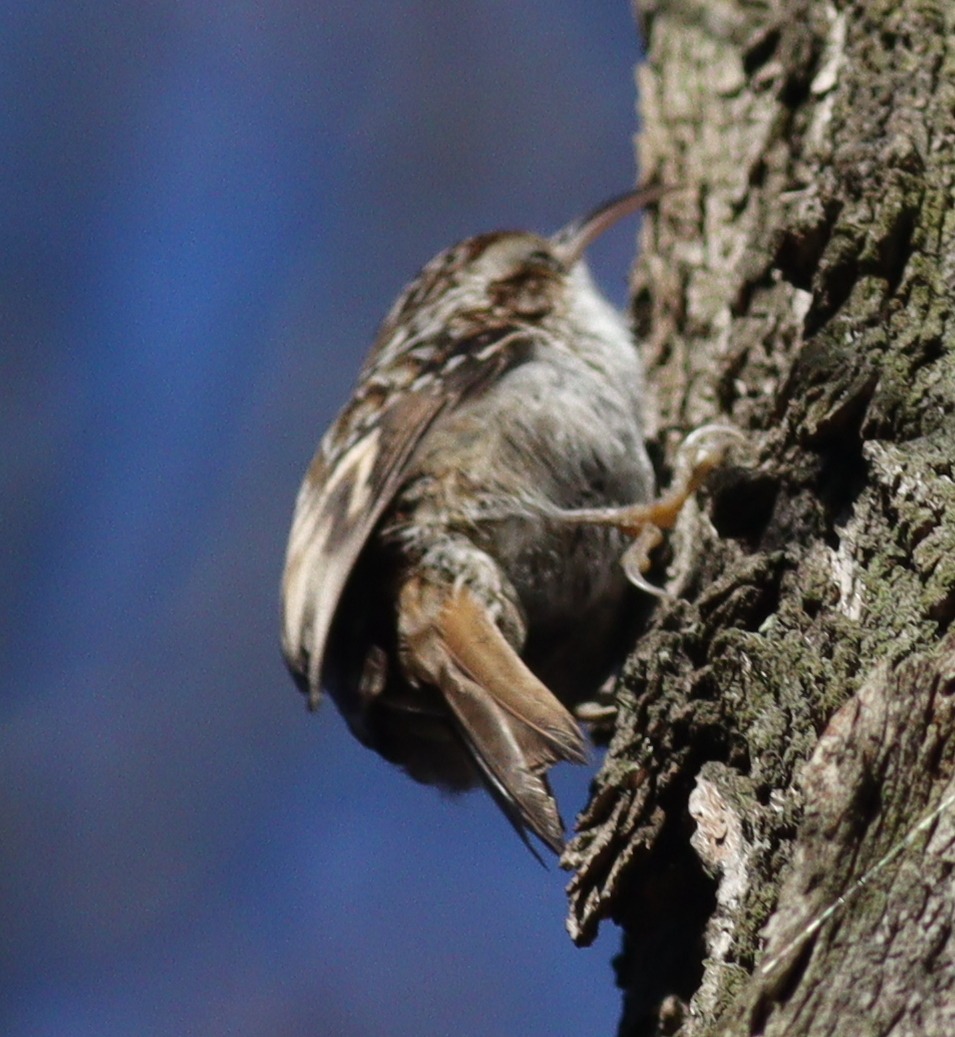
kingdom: Animalia
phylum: Chordata
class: Aves
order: Passeriformes
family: Certhiidae
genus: Certhia
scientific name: Certhia brachydactyla
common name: Short-toed treecreeper
